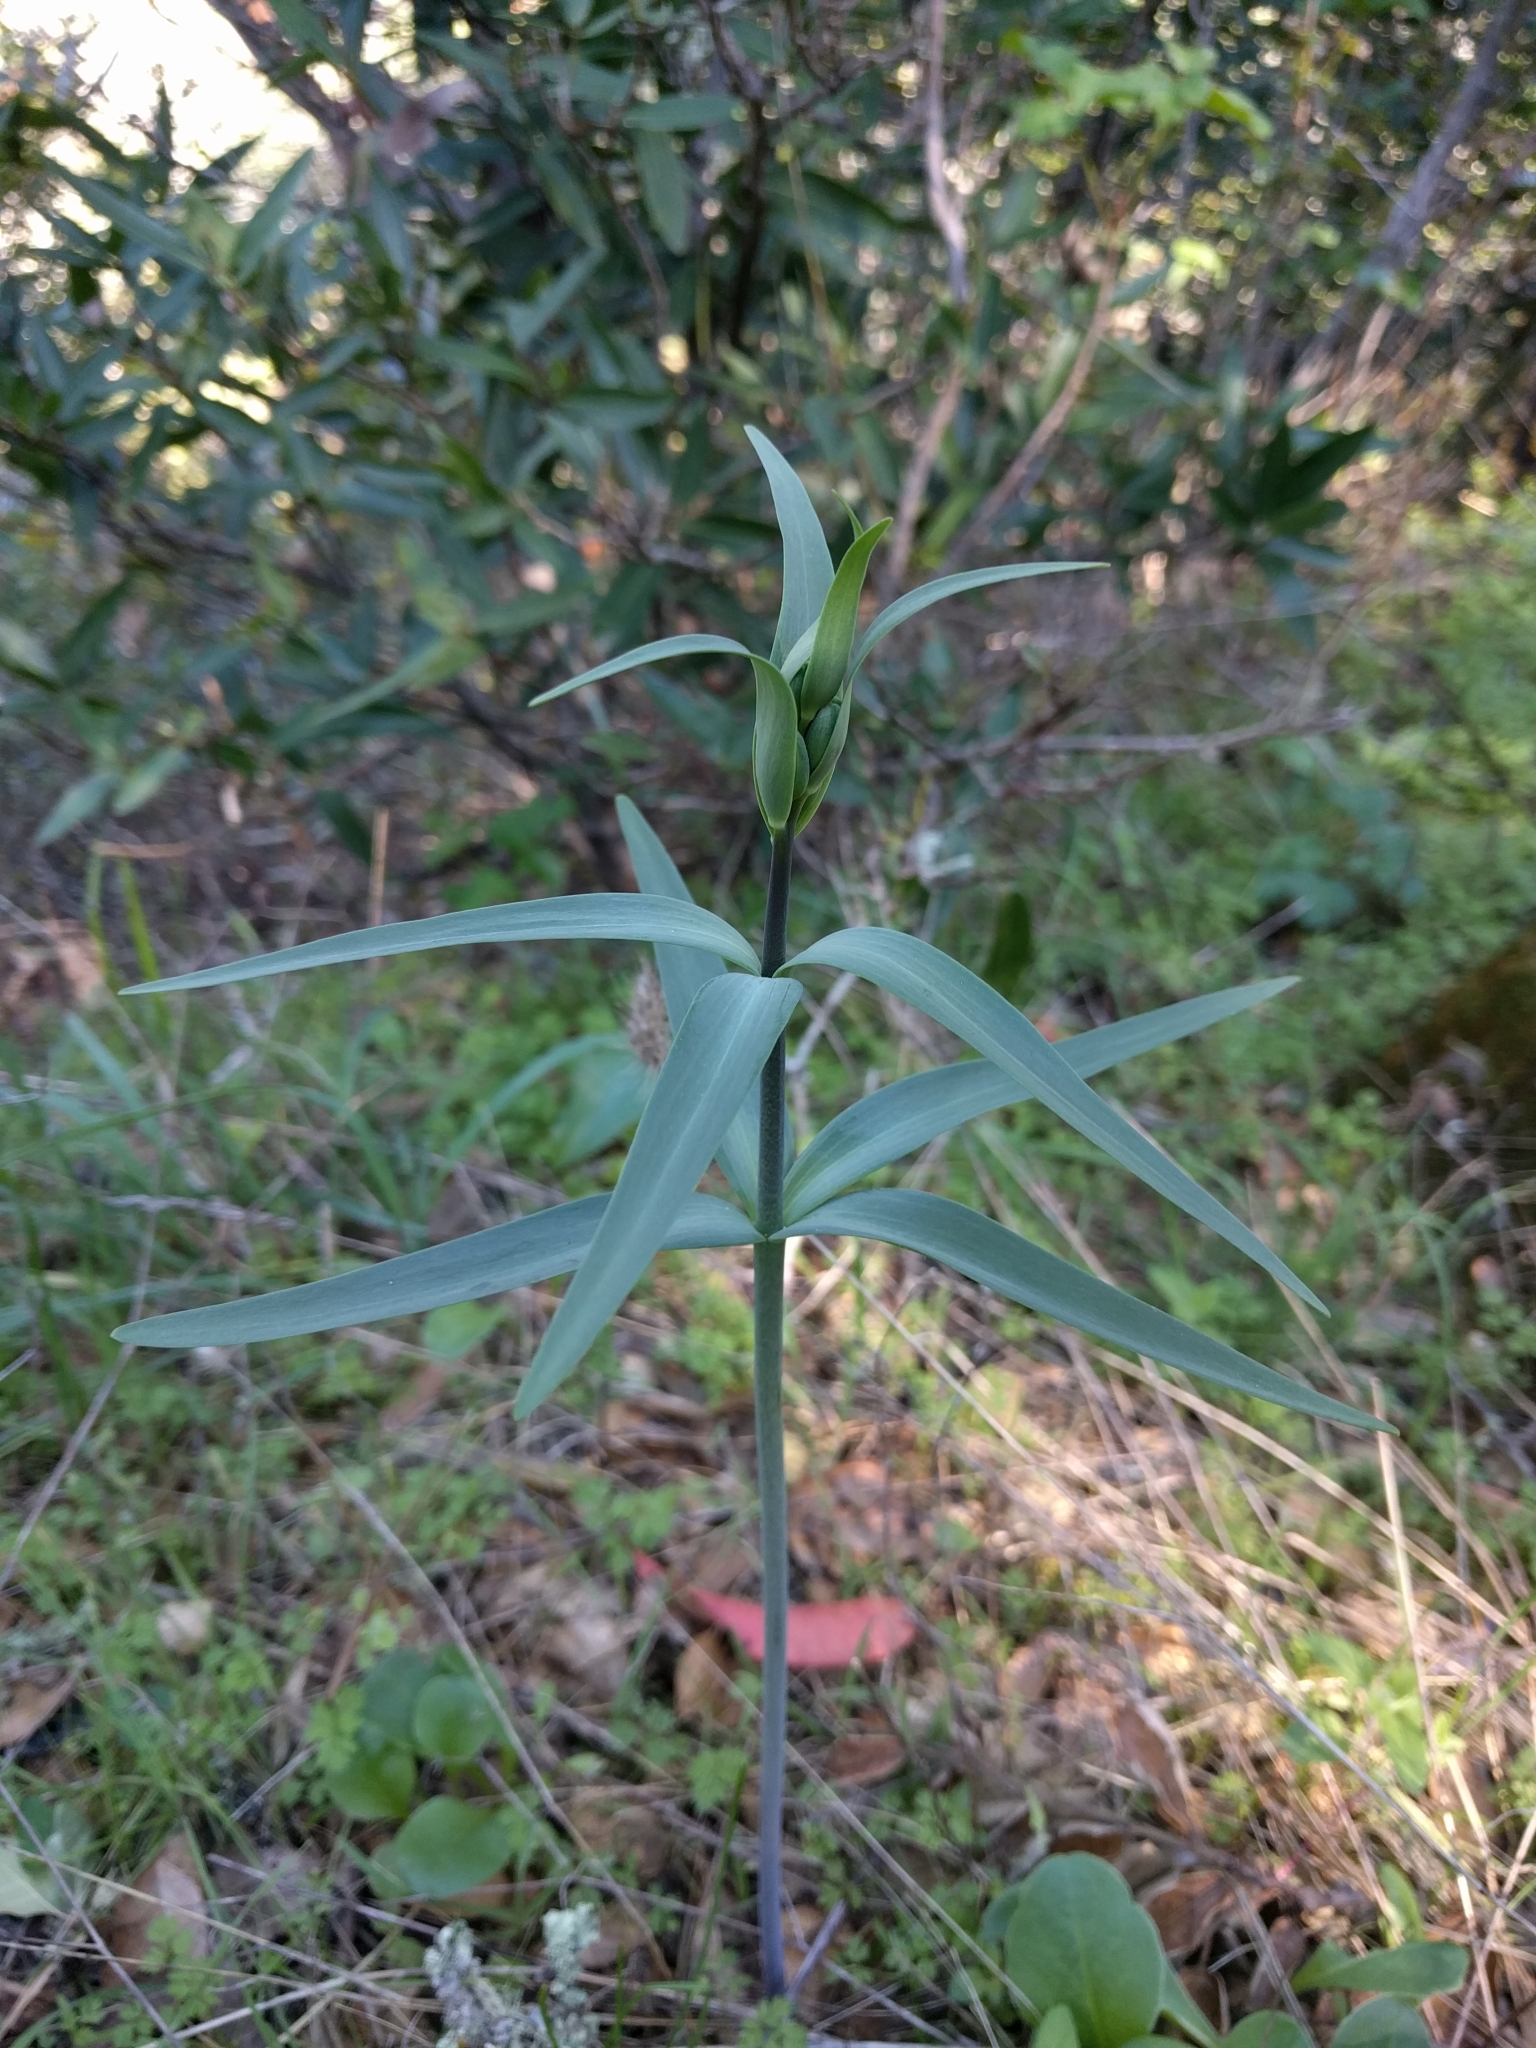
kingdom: Plantae
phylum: Tracheophyta
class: Liliopsida
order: Liliales
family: Liliaceae
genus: Fritillaria
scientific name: Fritillaria affinis
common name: Ojai fritillary
